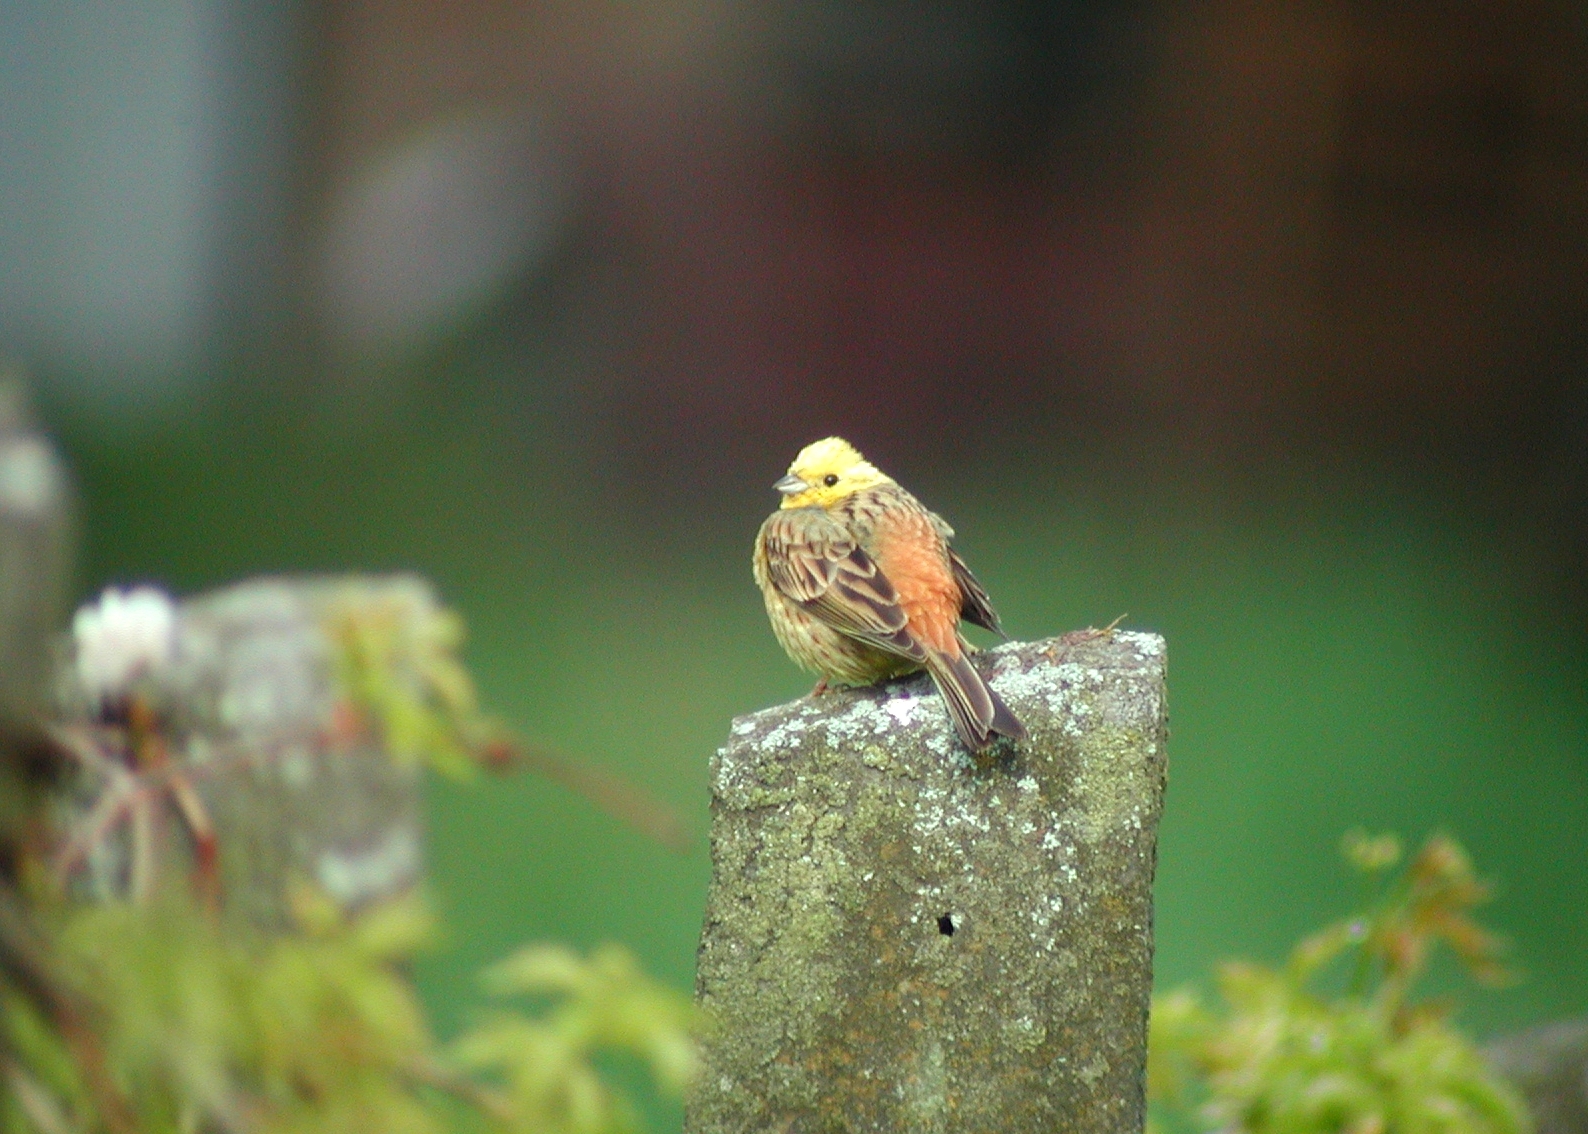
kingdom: Animalia
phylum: Chordata
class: Aves
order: Passeriformes
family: Emberizidae
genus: Emberiza
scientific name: Emberiza citrinella
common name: Yellowhammer
